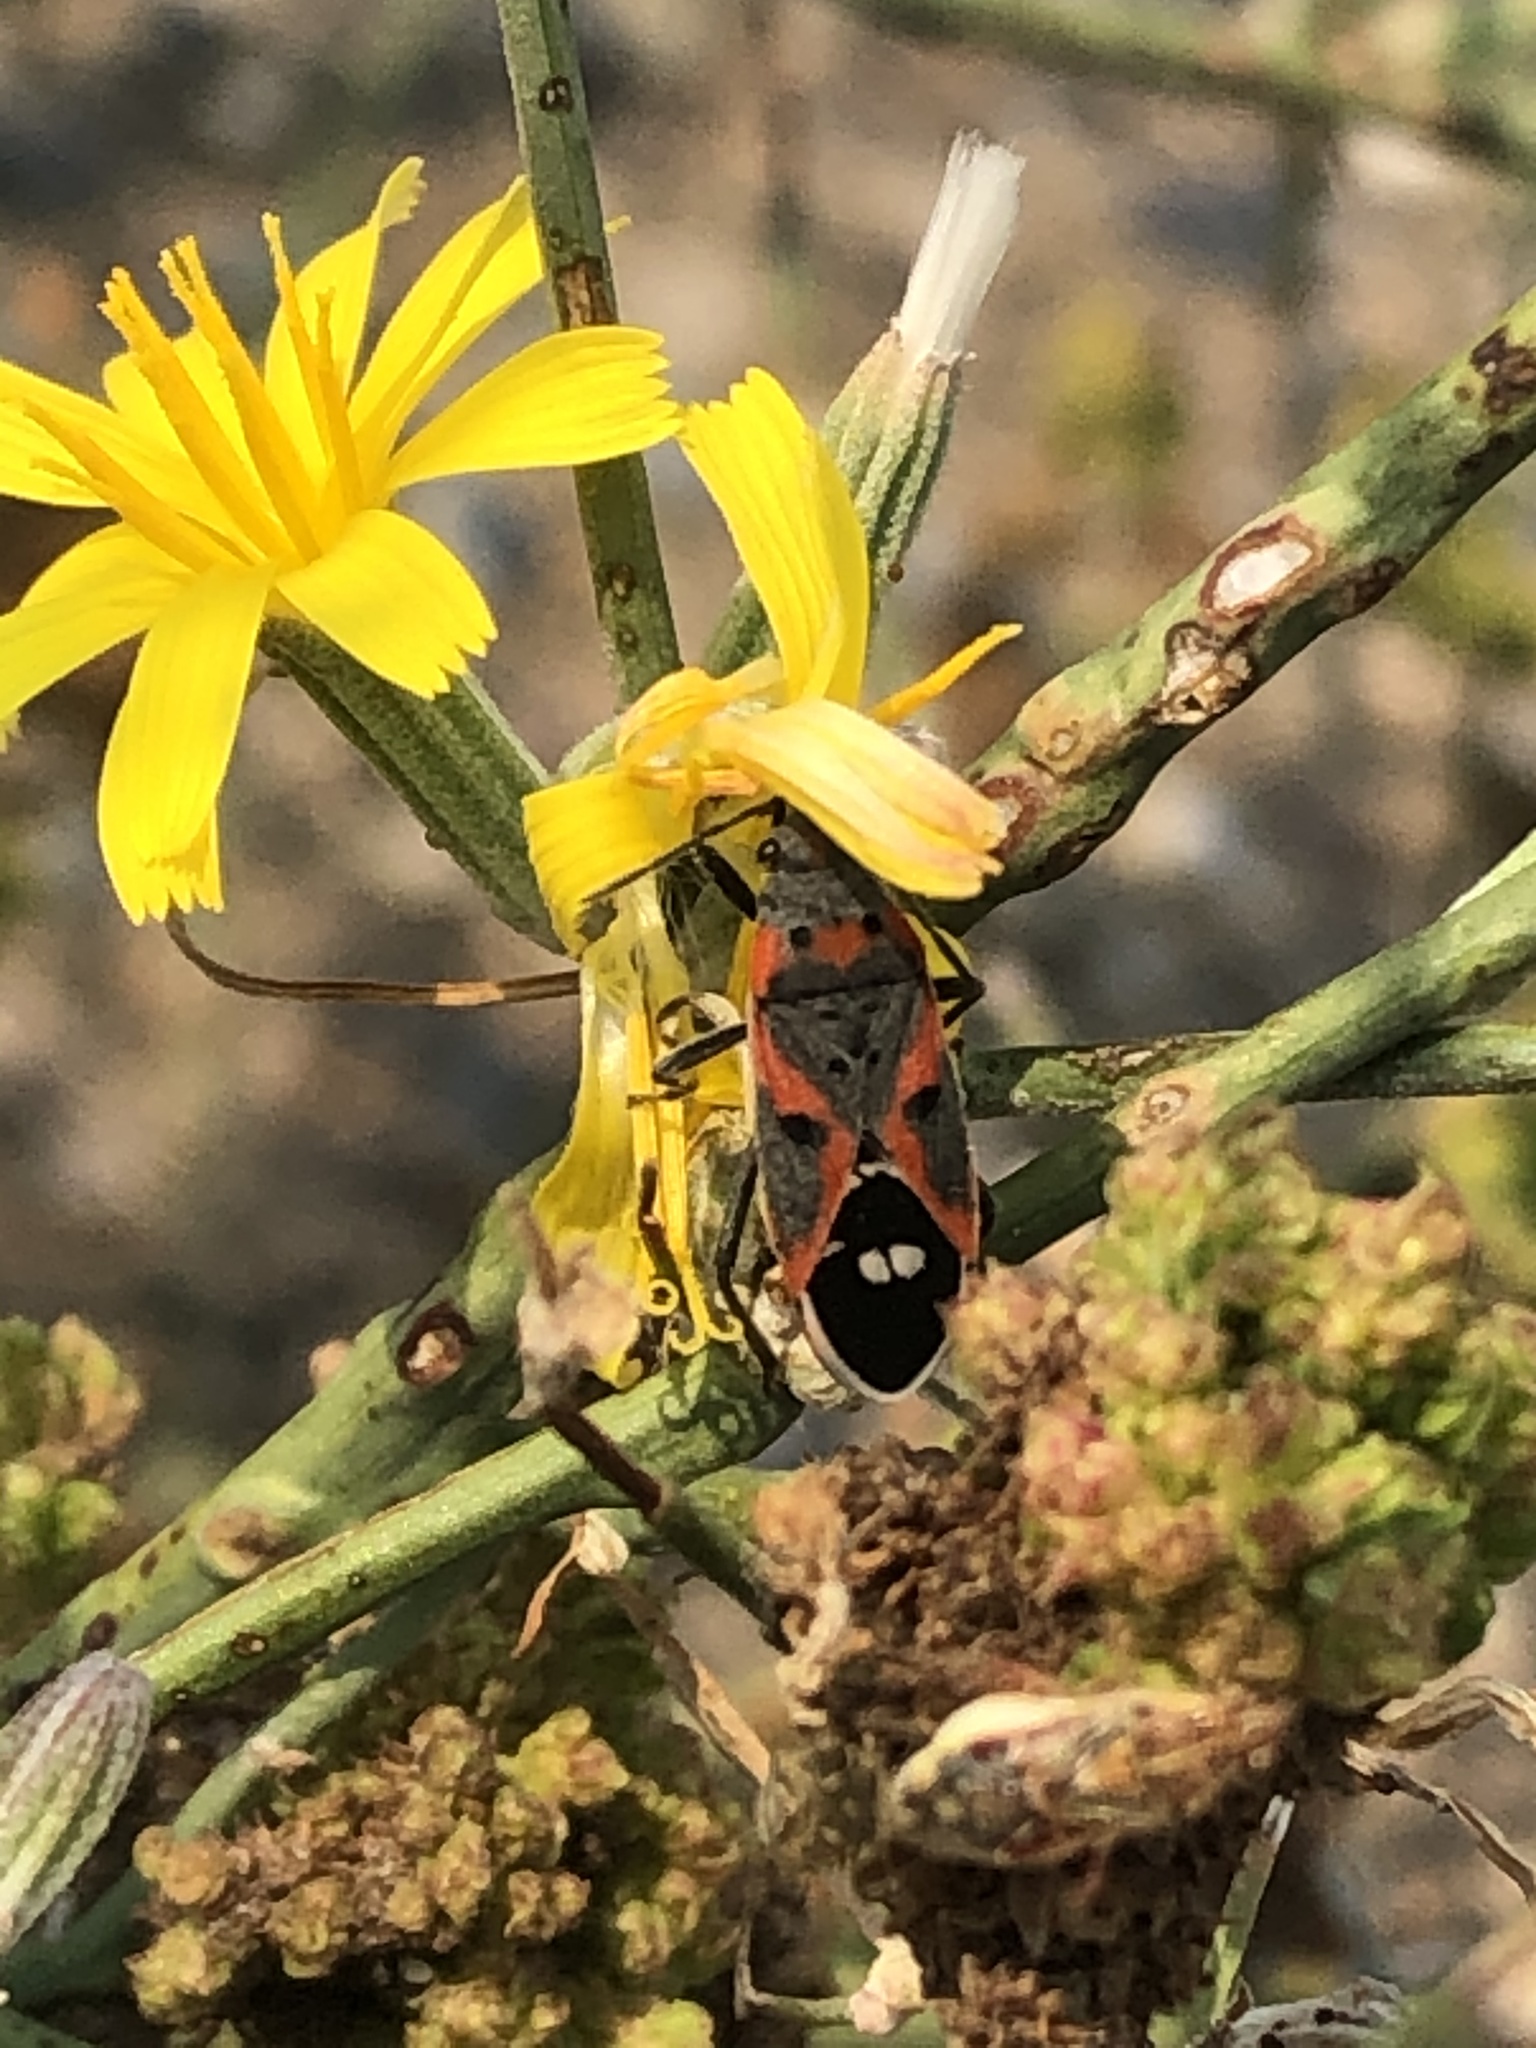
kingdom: Animalia
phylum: Arthropoda
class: Insecta
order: Hemiptera
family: Lygaeidae
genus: Lygaeus
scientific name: Lygaeus kalmii
